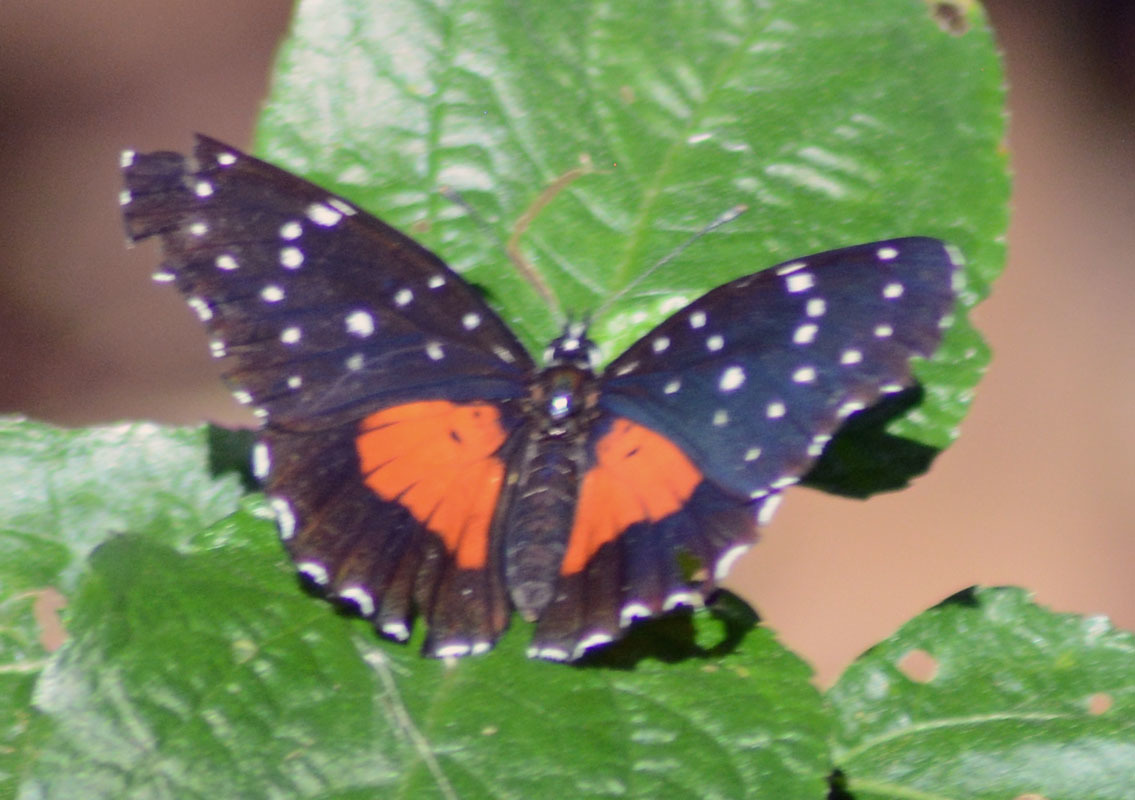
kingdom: Animalia
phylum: Arthropoda
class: Insecta
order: Lepidoptera
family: Nymphalidae
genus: Chlosyne
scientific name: Chlosyne janais
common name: Crimson patch
